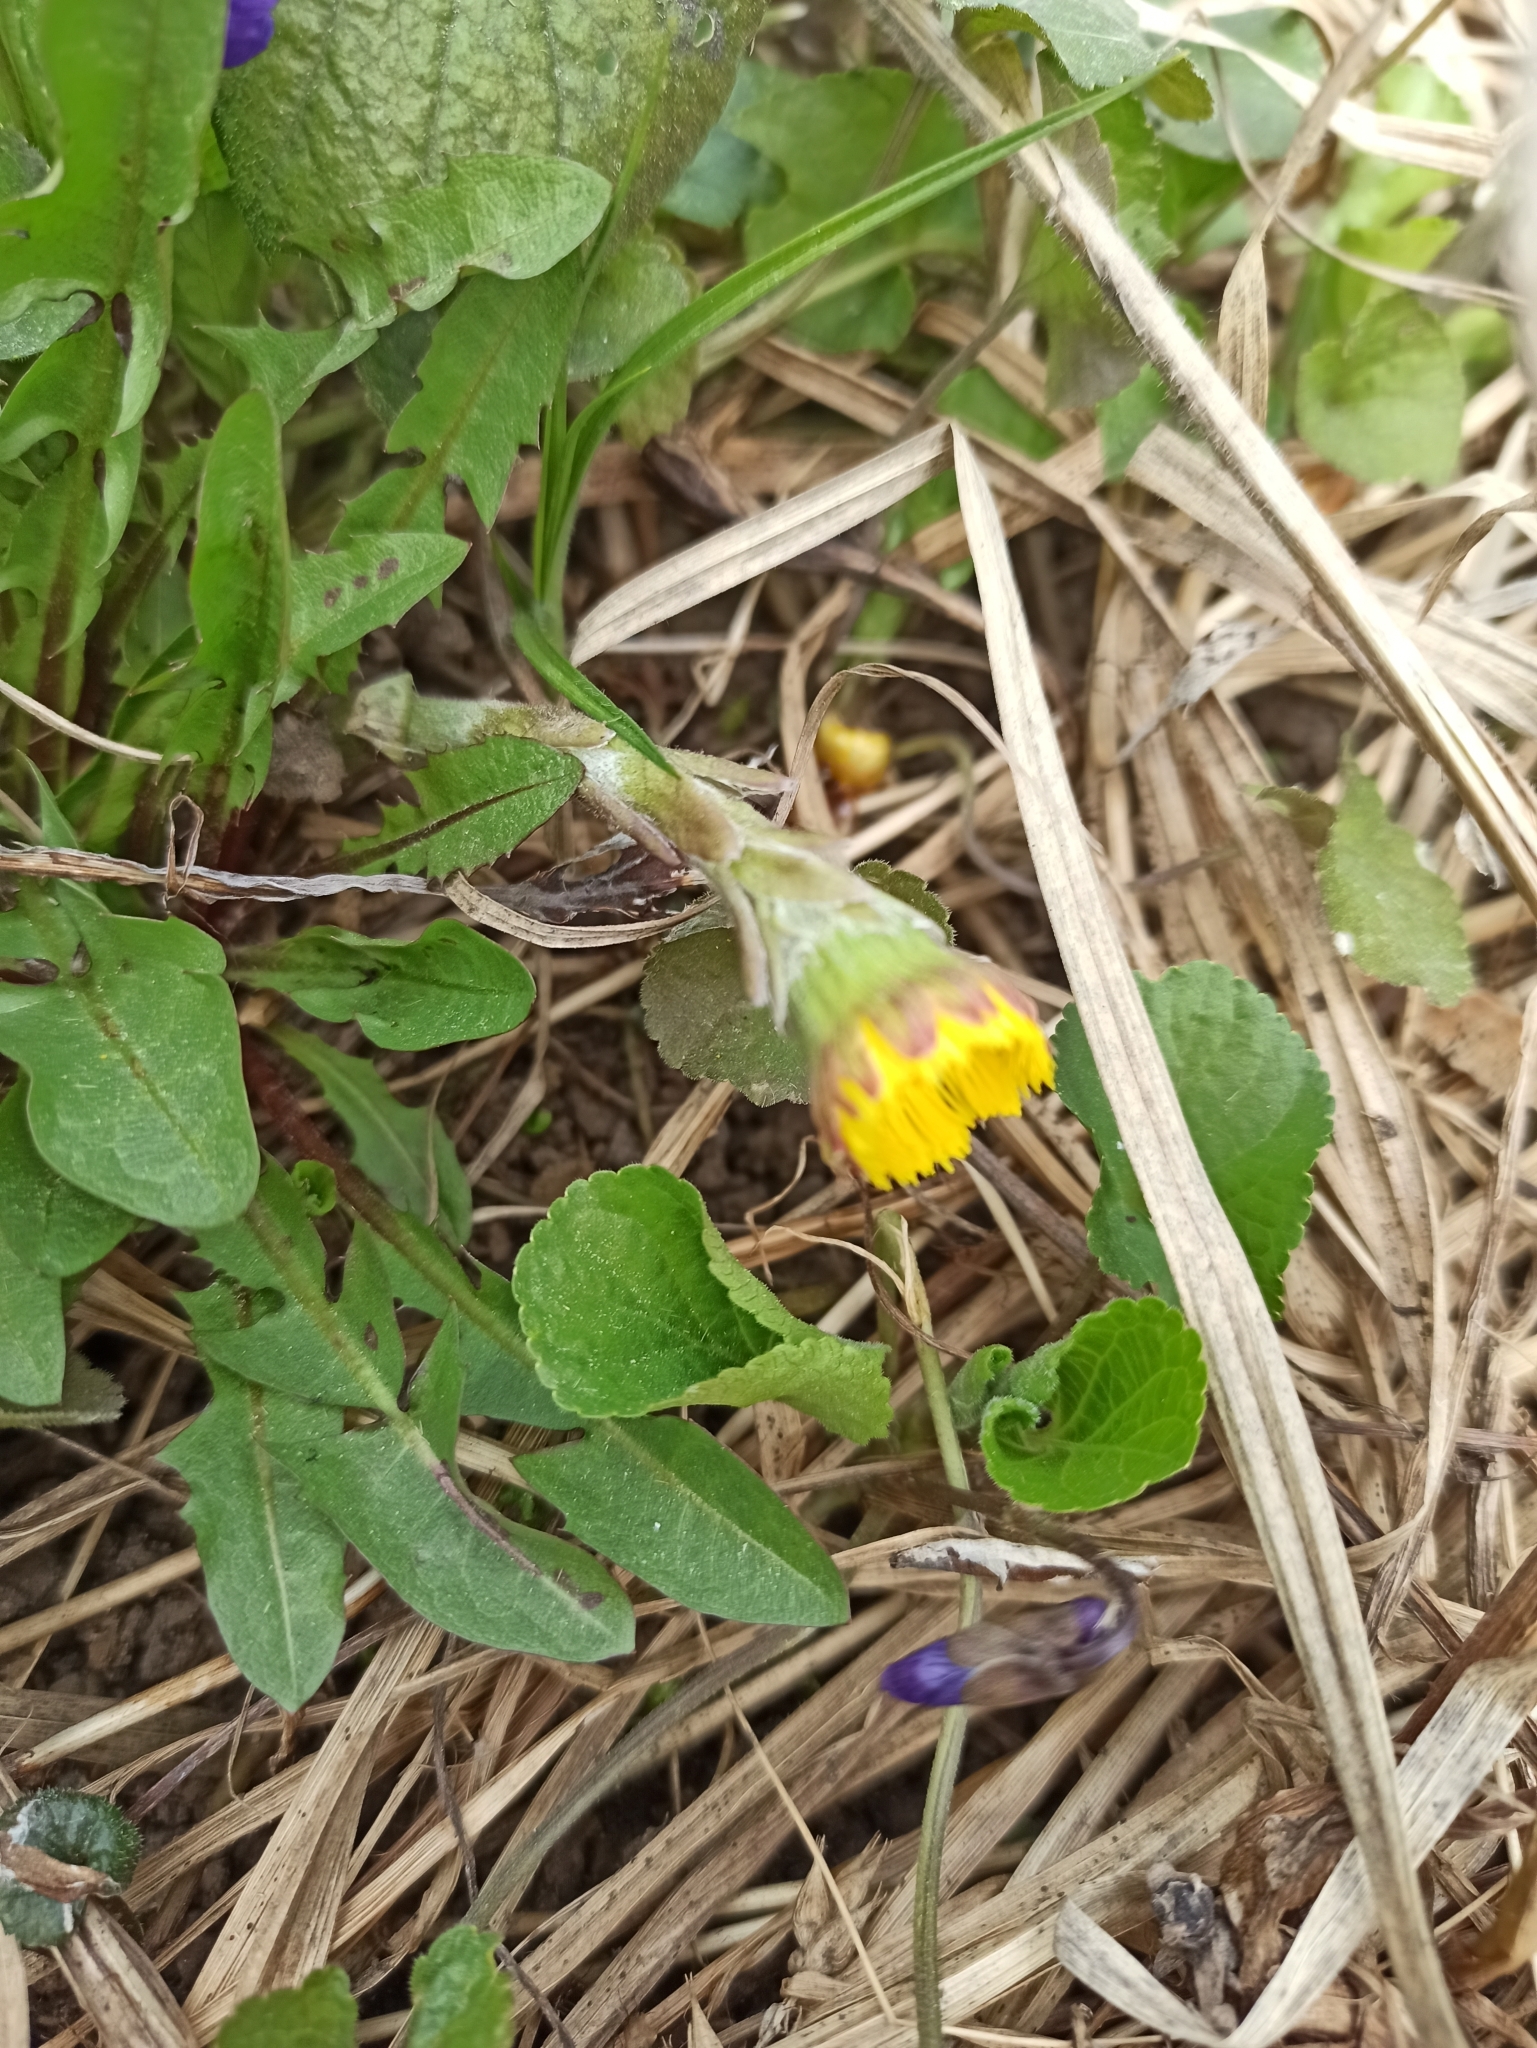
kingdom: Plantae
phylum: Tracheophyta
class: Magnoliopsida
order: Asterales
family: Asteraceae
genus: Tussilago
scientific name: Tussilago farfara
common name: Coltsfoot
